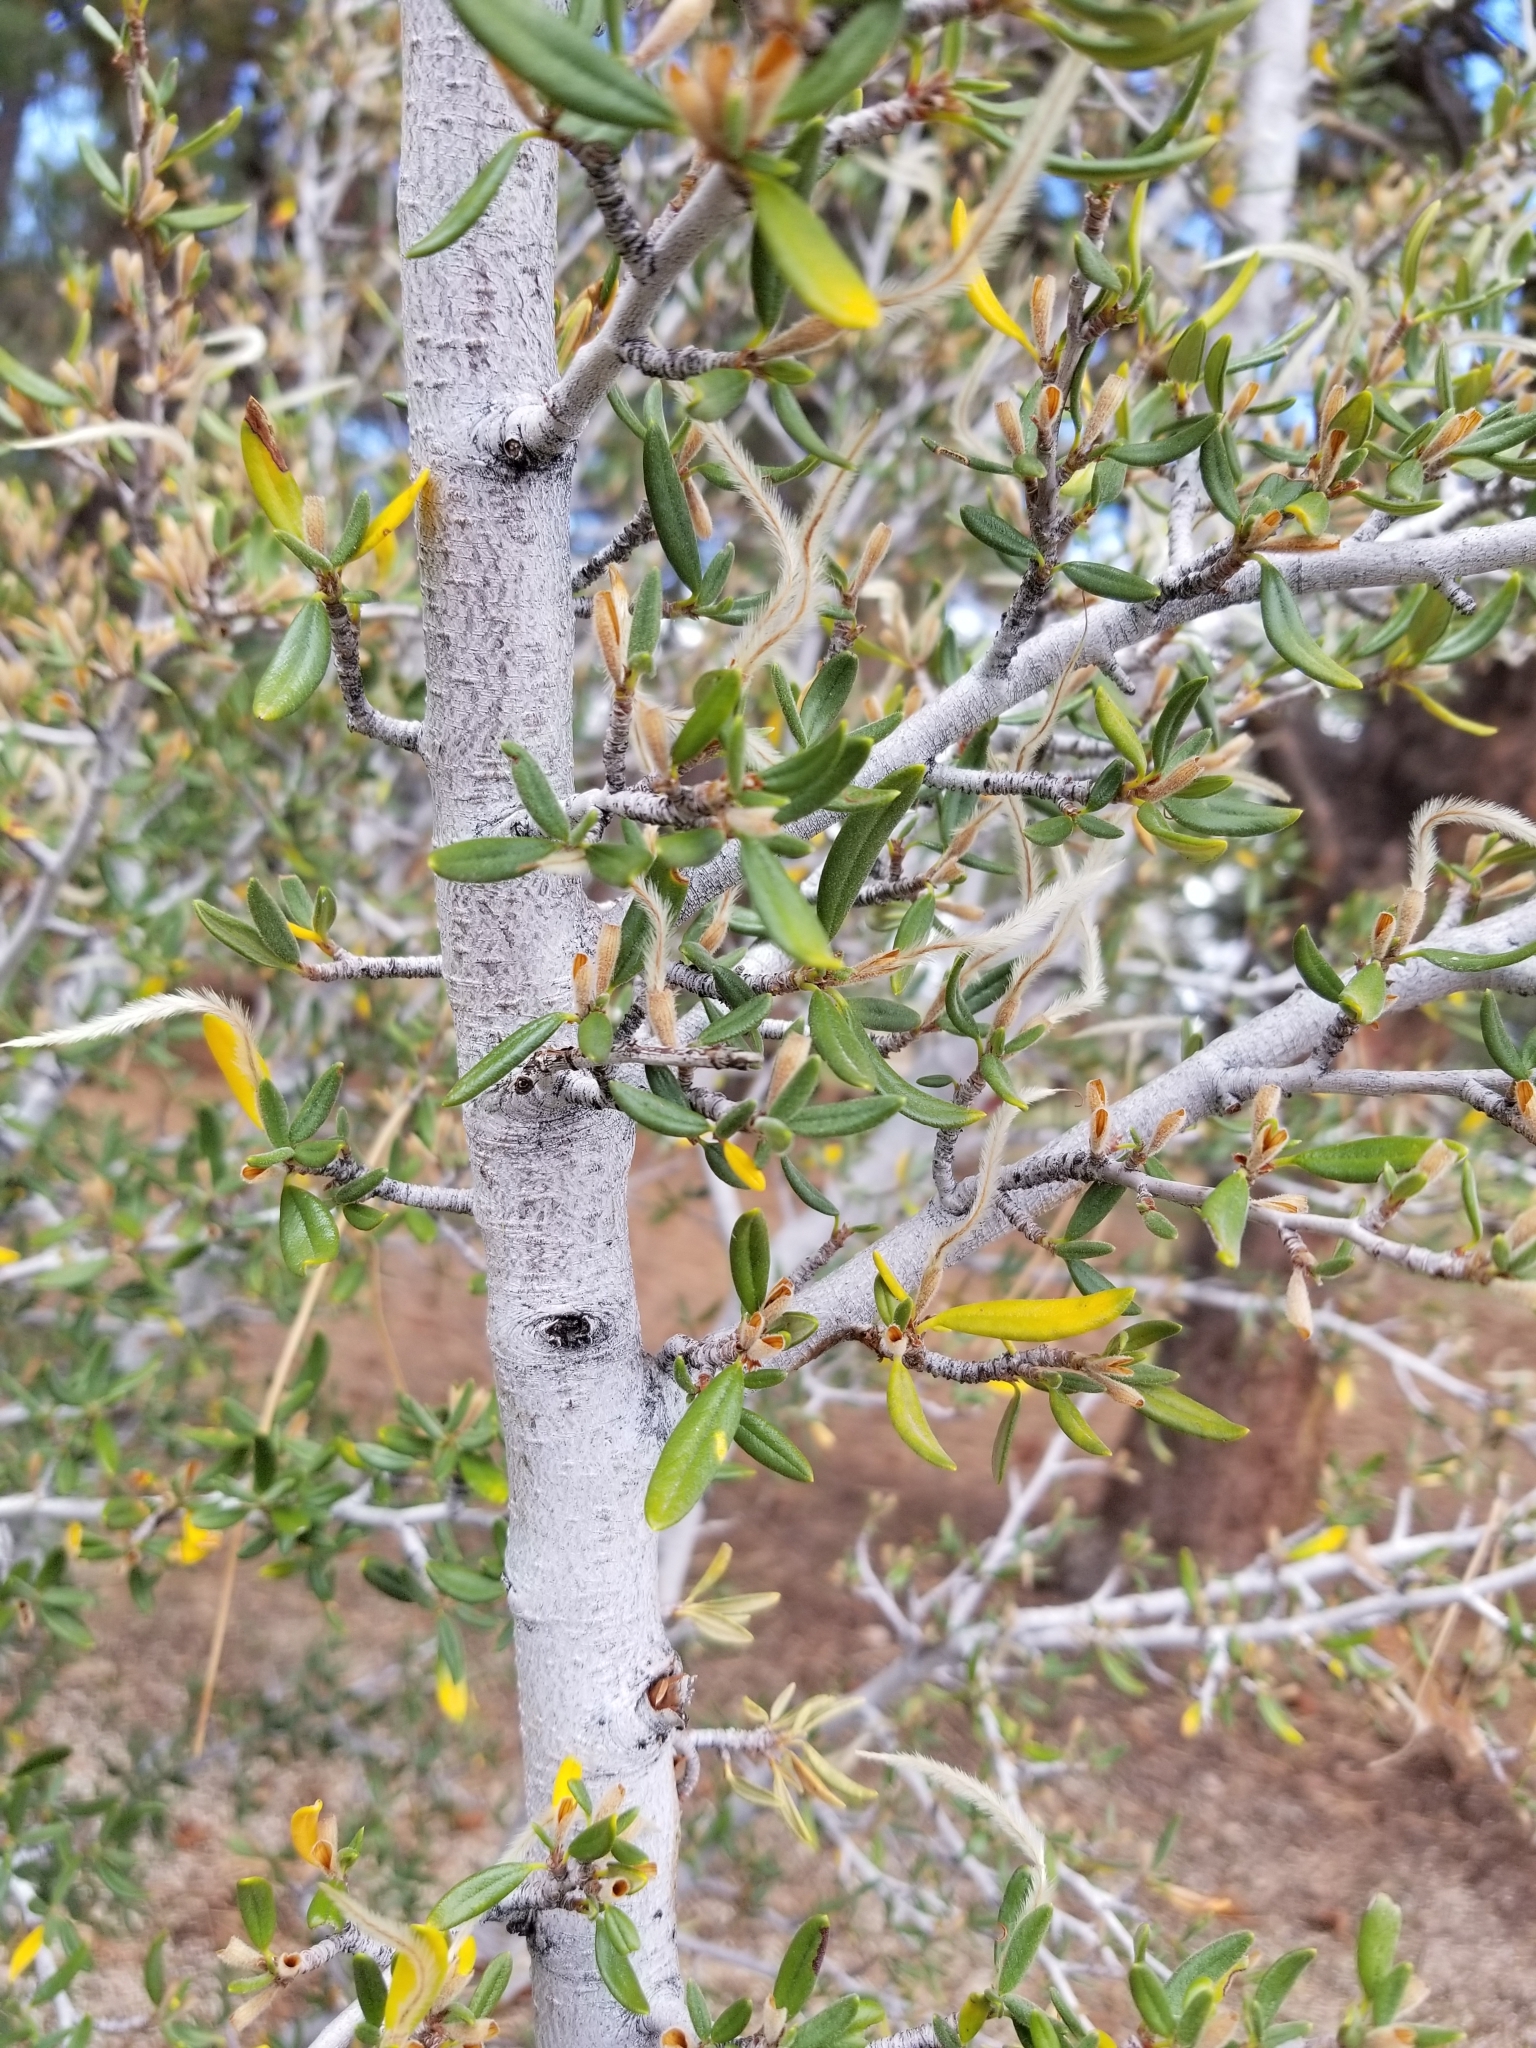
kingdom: Plantae
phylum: Tracheophyta
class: Magnoliopsida
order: Rosales
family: Rosaceae
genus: Cercocarpus
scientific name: Cercocarpus ledifolius
